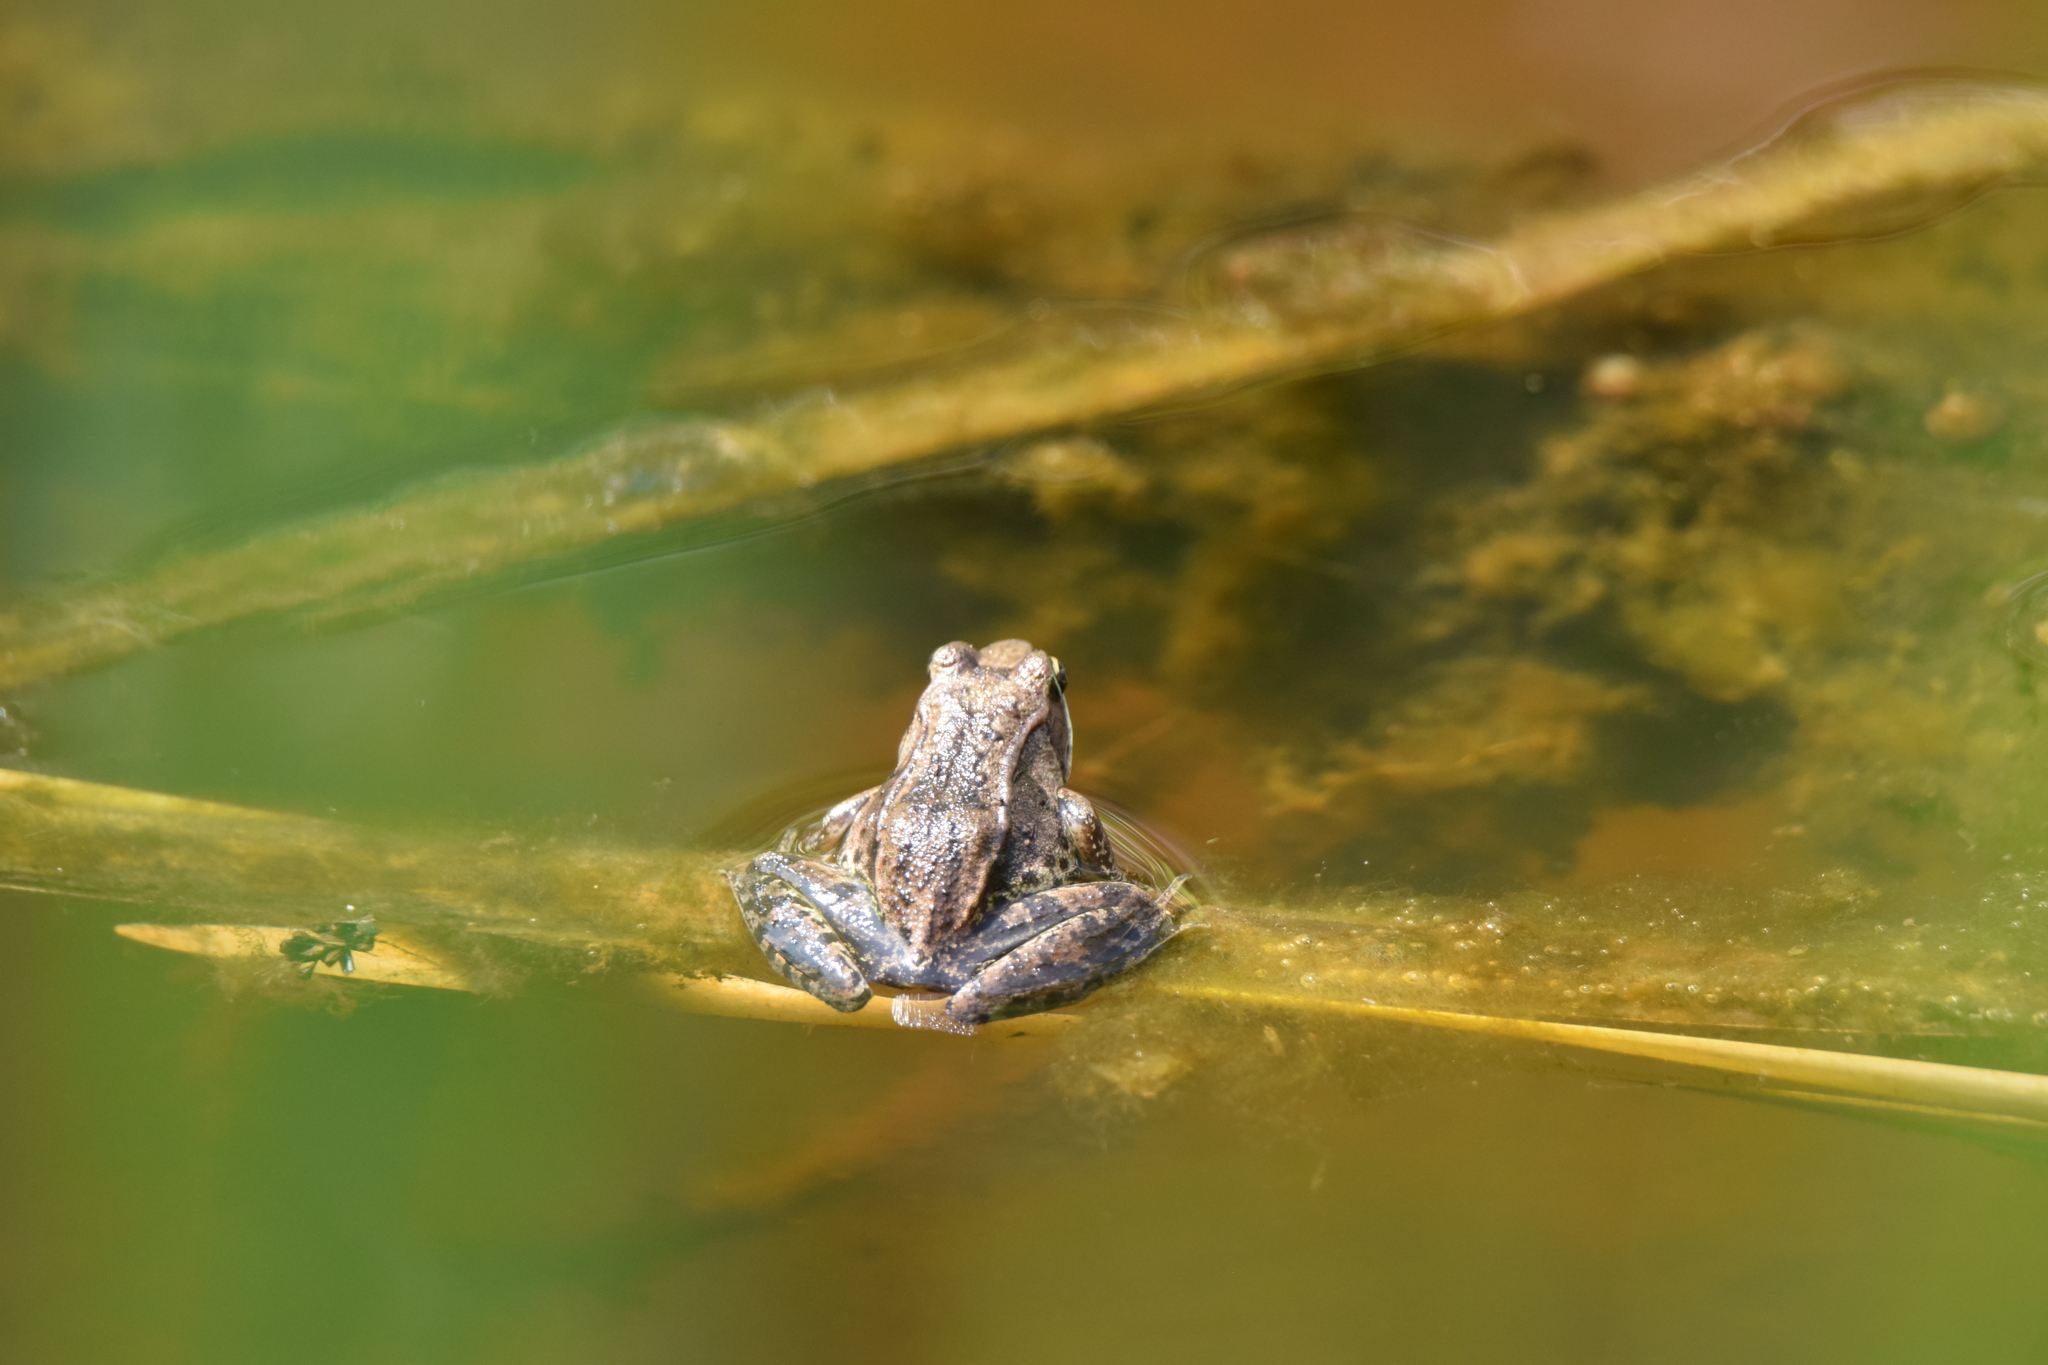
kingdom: Animalia
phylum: Chordata
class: Amphibia
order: Anura
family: Ranidae
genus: Lithobates
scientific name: Lithobates sylvaticus
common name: Wood frog
